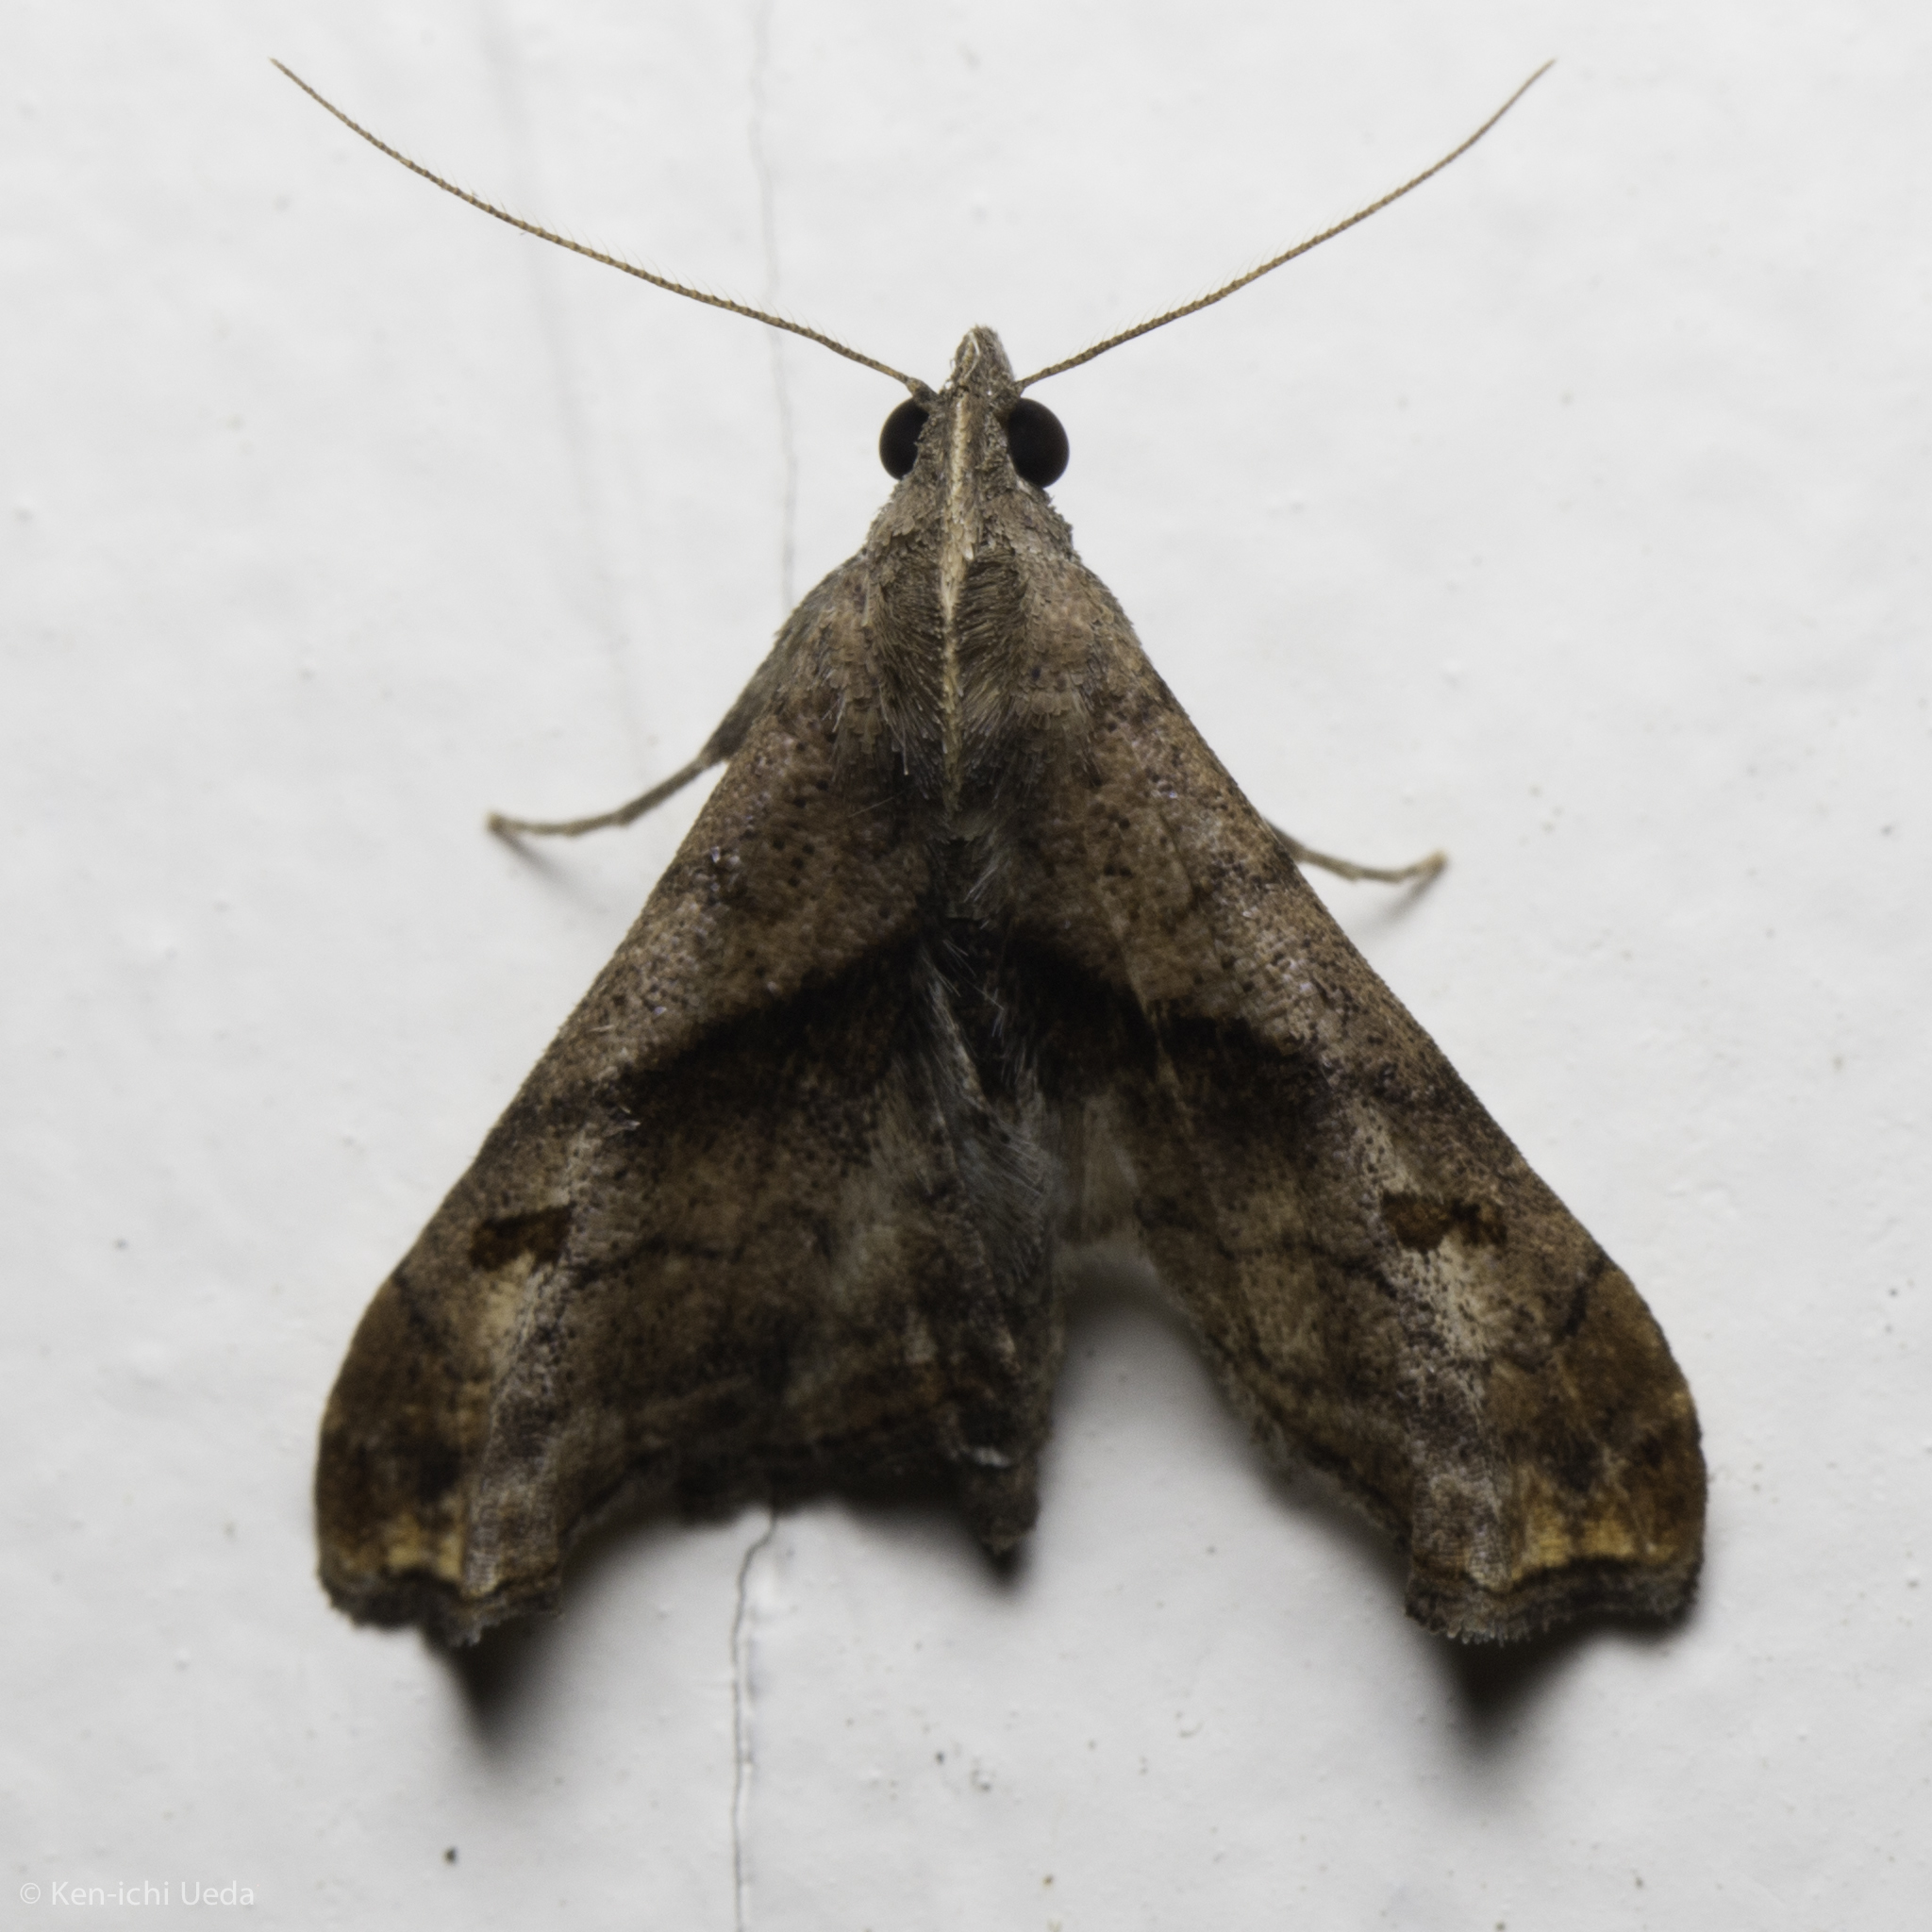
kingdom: Animalia
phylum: Arthropoda
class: Insecta
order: Lepidoptera
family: Erebidae
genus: Palthis
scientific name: Palthis angulalis
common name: Dark-spotted palthis moth
